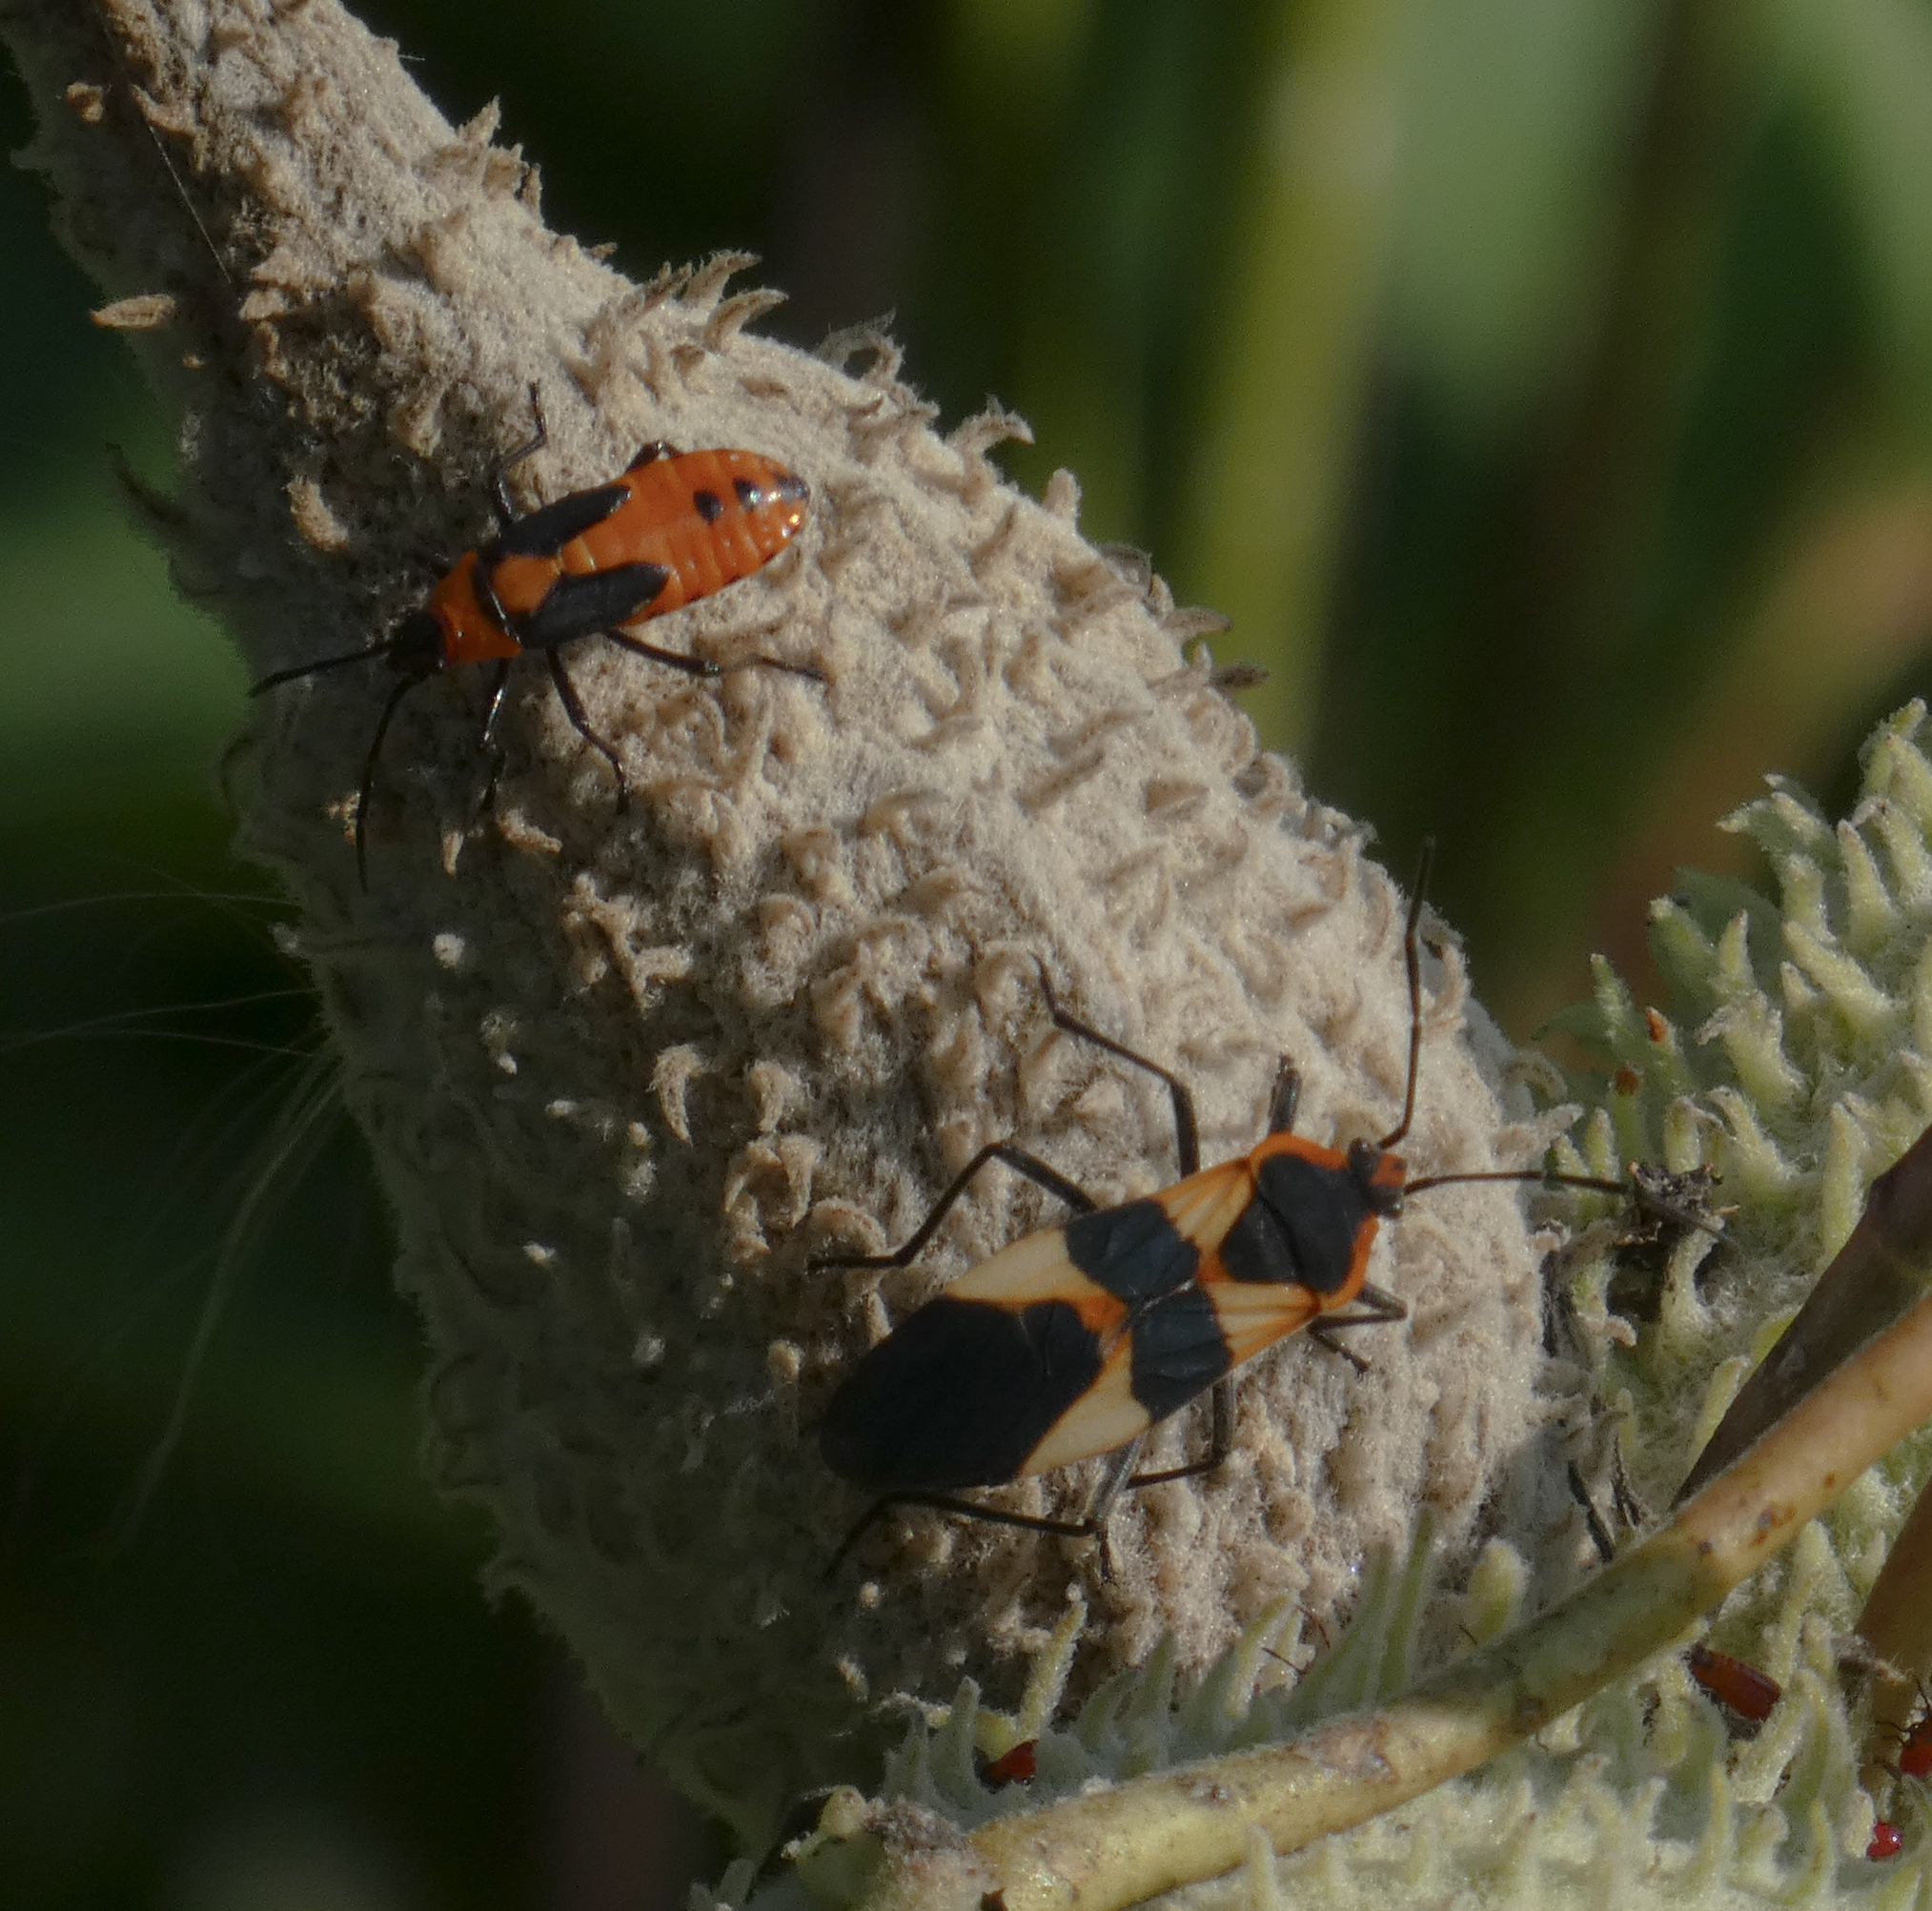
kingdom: Animalia
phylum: Arthropoda
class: Insecta
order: Hemiptera
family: Lygaeidae
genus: Oncopeltus
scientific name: Oncopeltus fasciatus
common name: Large milkweed bug
